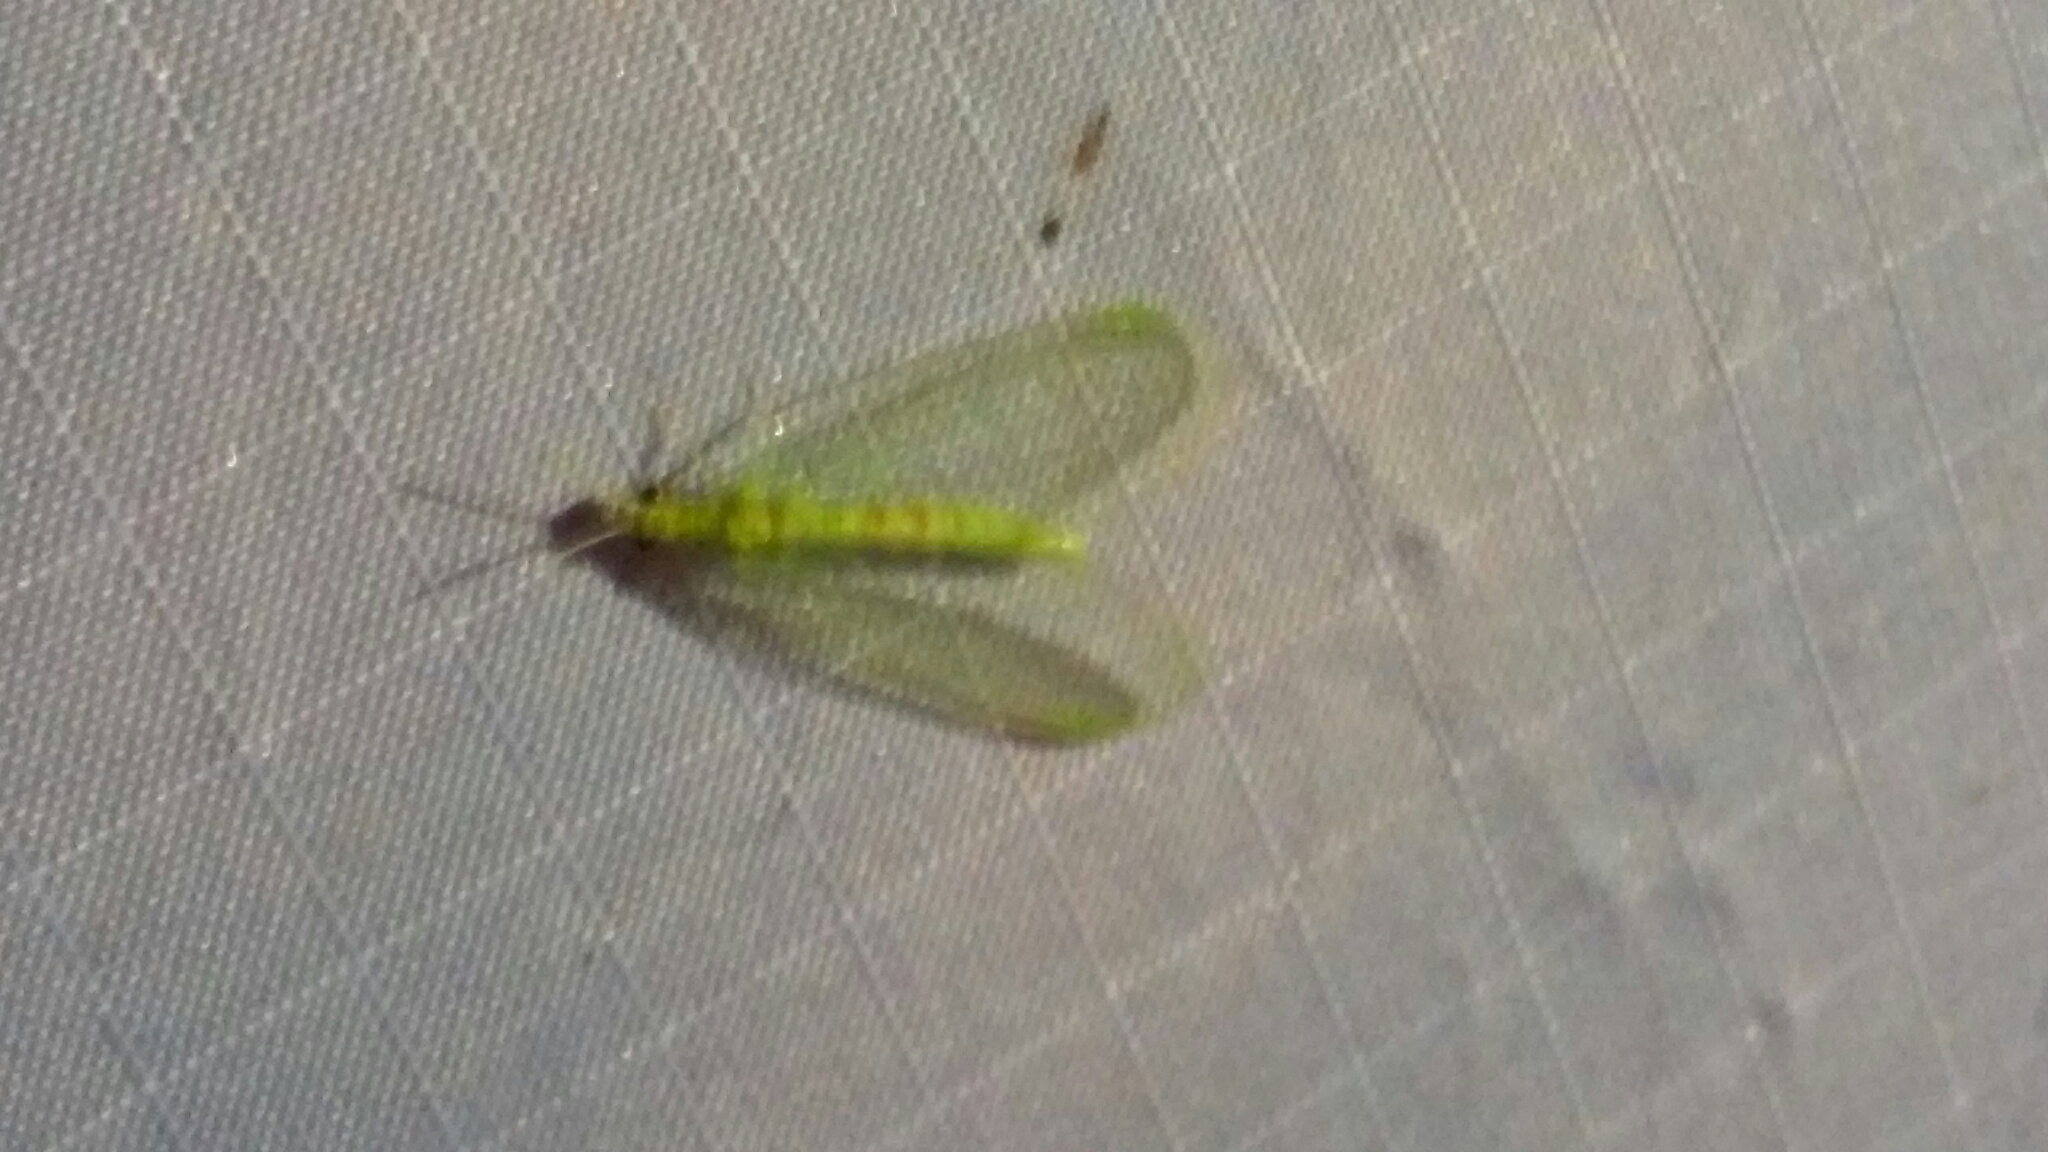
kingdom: Animalia
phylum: Arthropoda
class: Insecta
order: Neuroptera
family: Chrysopidae
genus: Chrysopa
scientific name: Chrysopa quadripunctata
